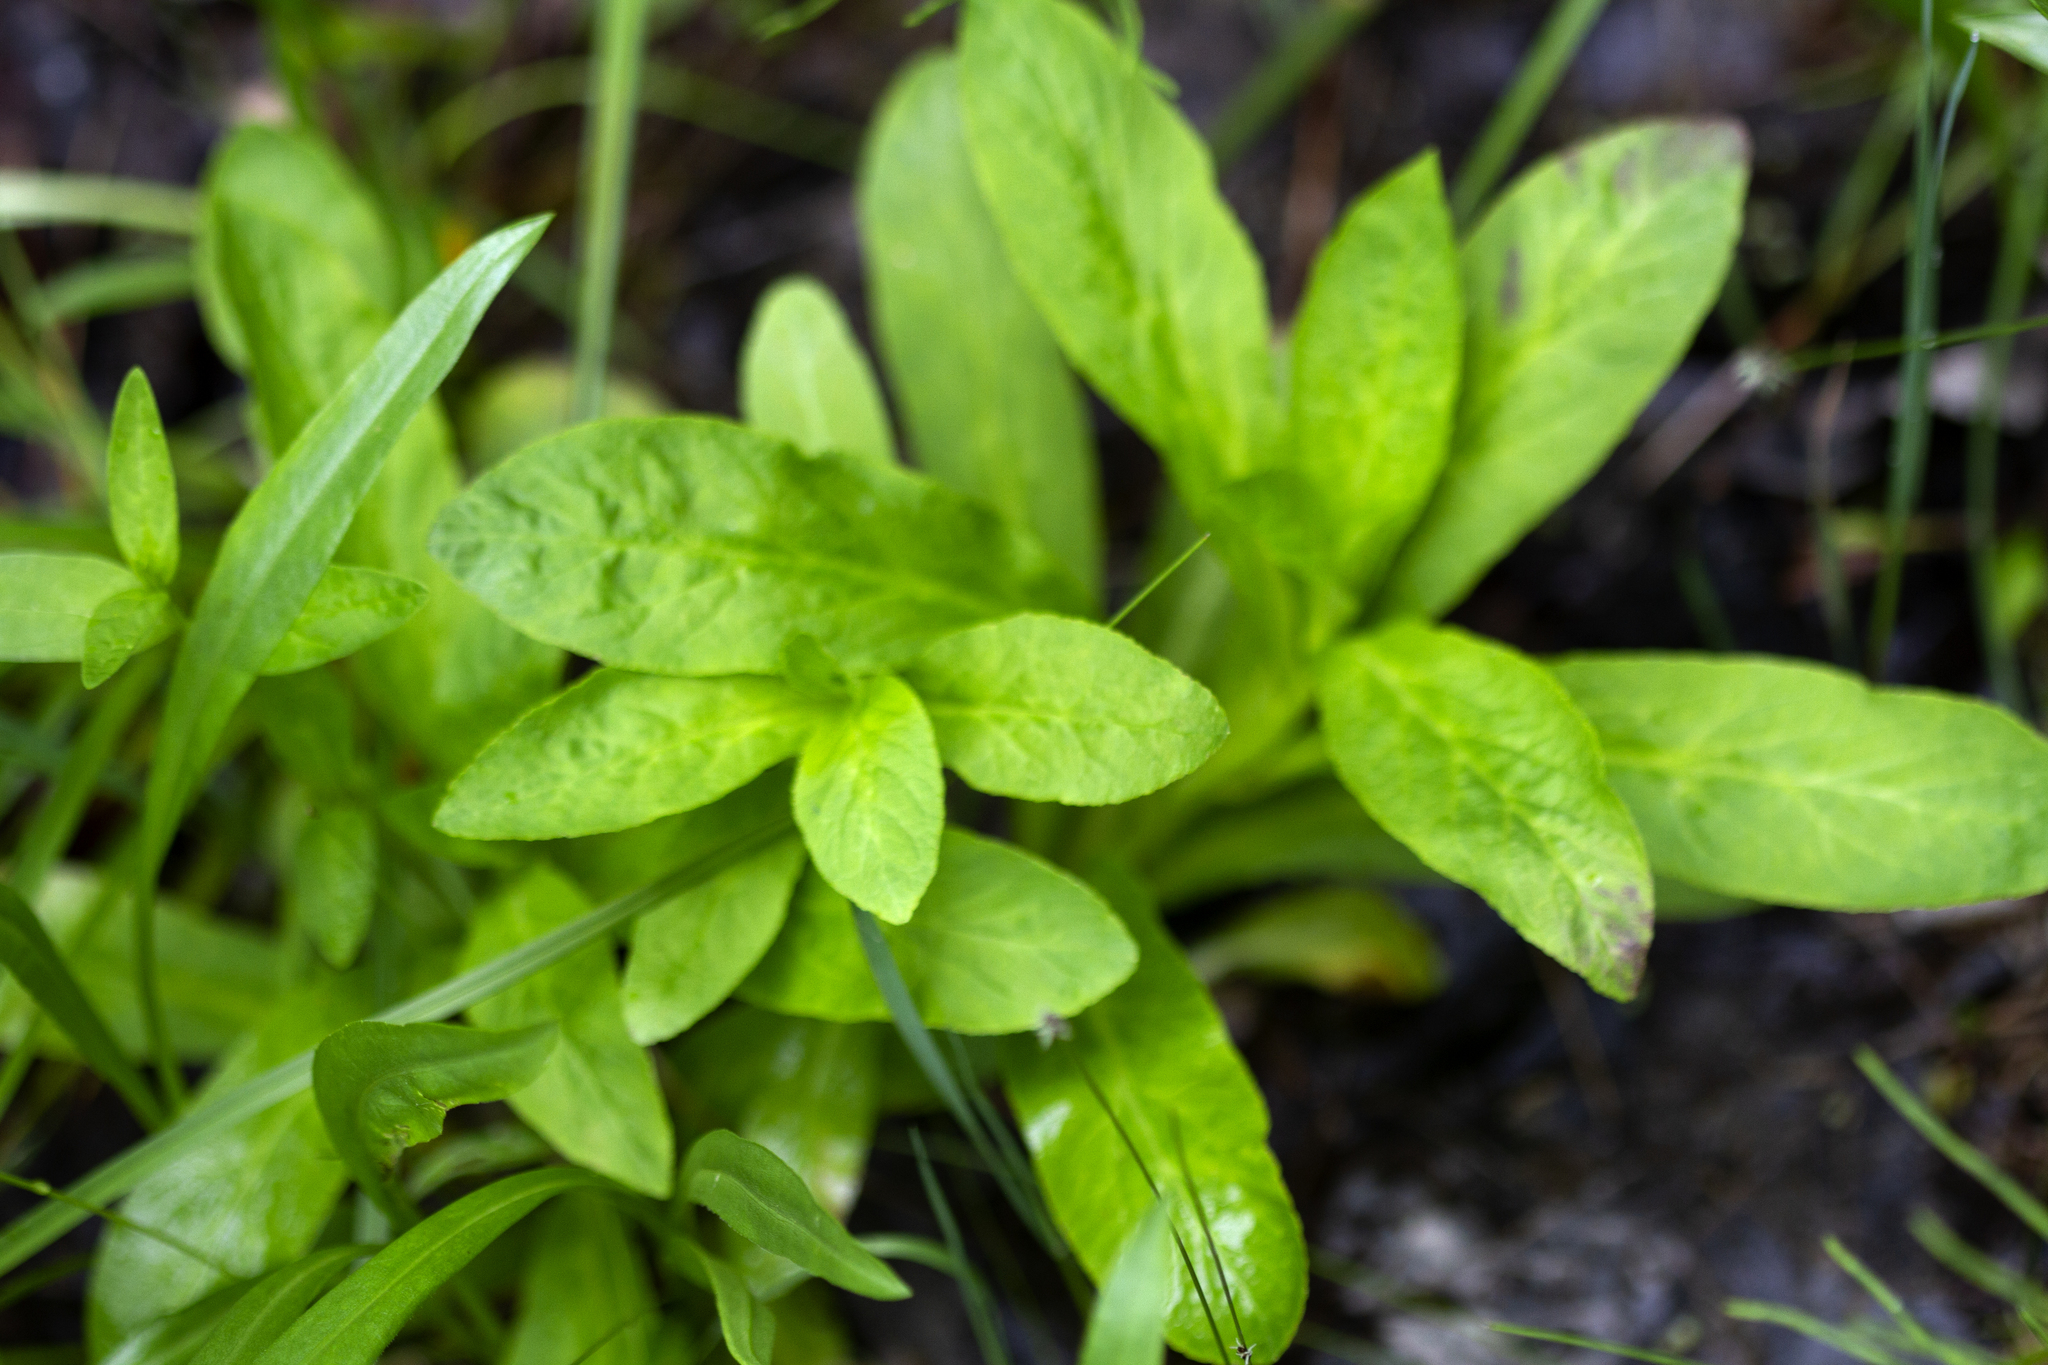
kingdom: Plantae
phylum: Tracheophyta
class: Magnoliopsida
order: Asterales
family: Campanulaceae
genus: Lobelia
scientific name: Lobelia siphilitica
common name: Great lobelia
